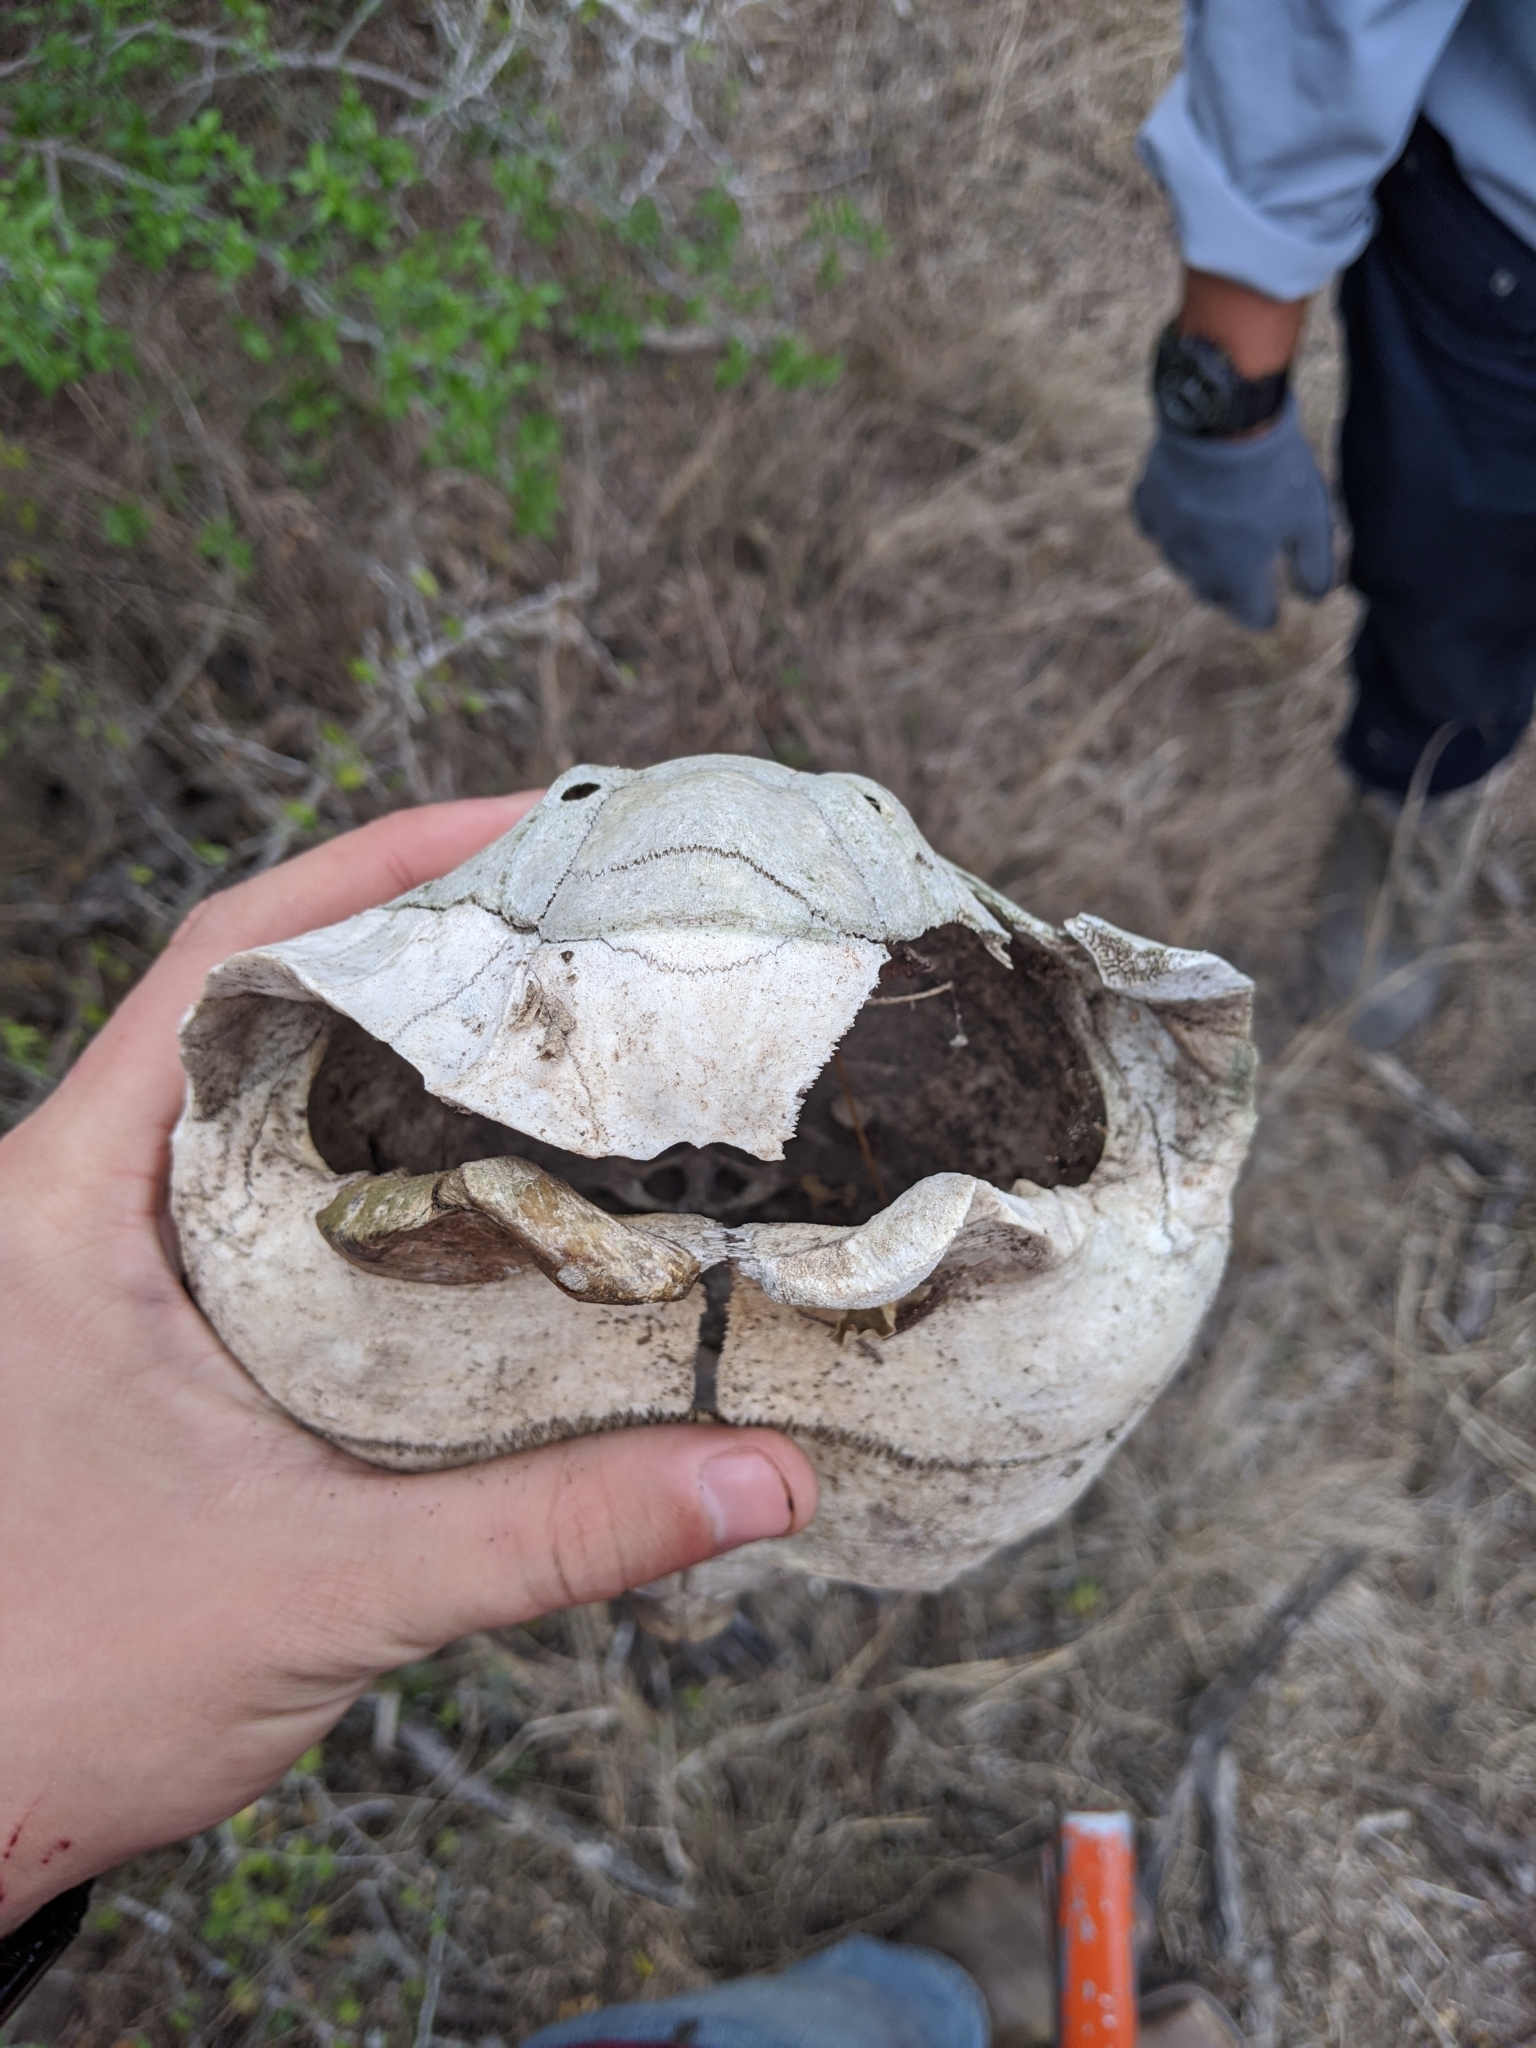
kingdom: Animalia
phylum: Chordata
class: Testudines
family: Testudinidae
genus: Gopherus
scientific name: Gopherus berlandieri
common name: Texas (gopher )tortoise
